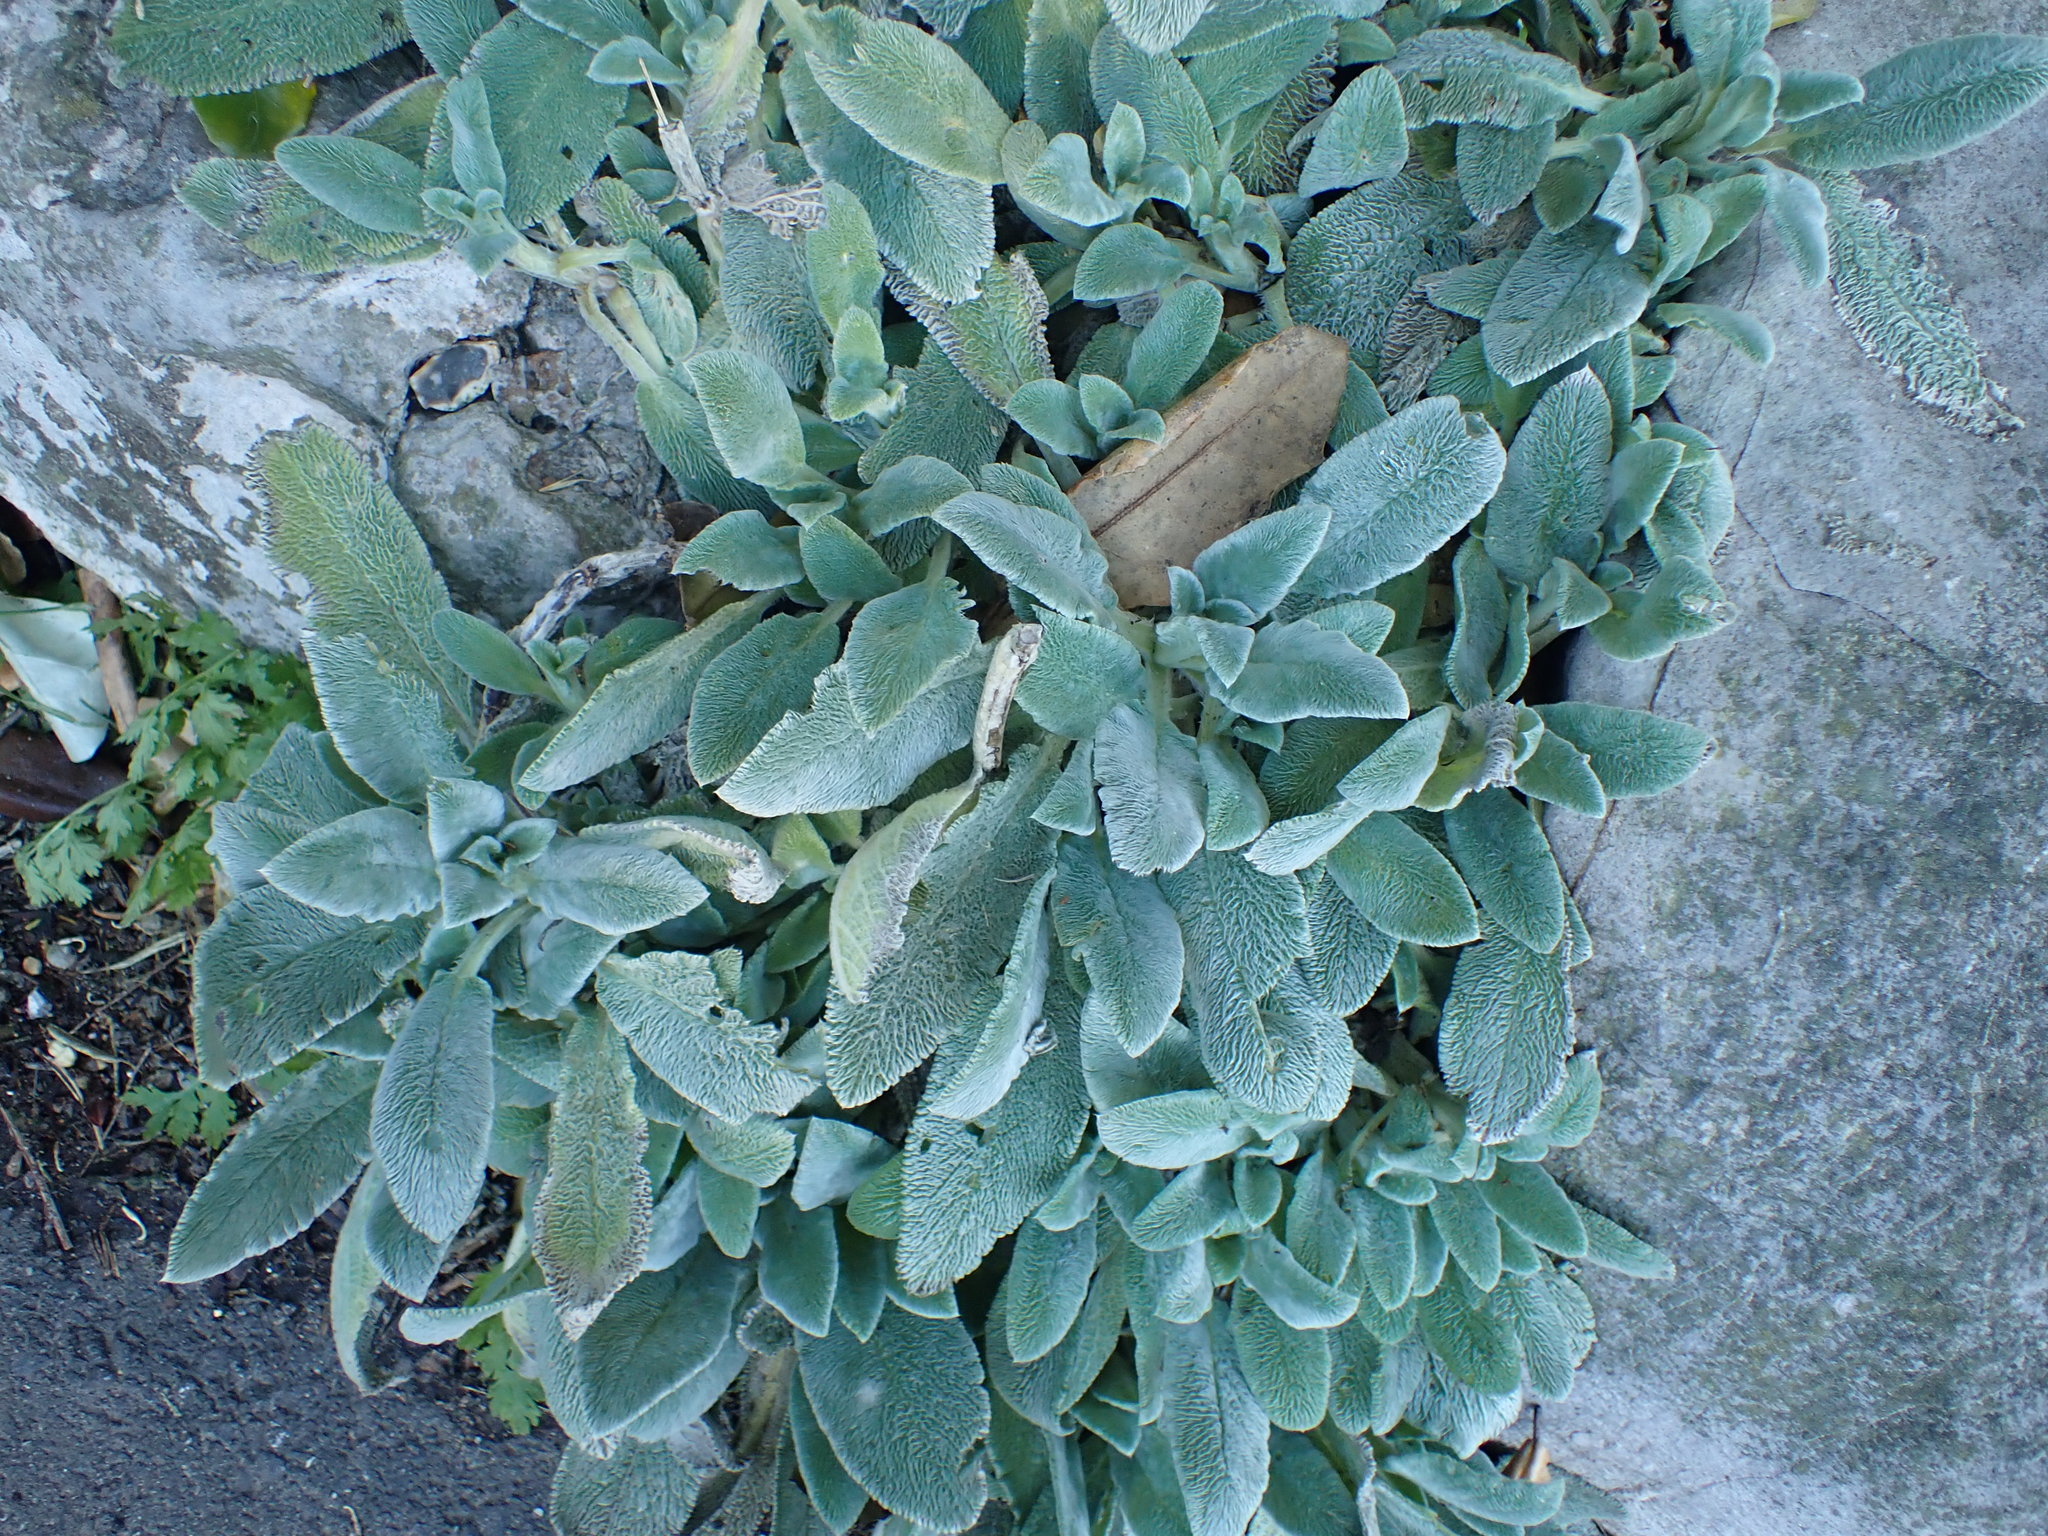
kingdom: Plantae
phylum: Tracheophyta
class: Magnoliopsida
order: Lamiales
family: Lamiaceae
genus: Stachys
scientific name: Stachys byzantina
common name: Lamb's-ear
